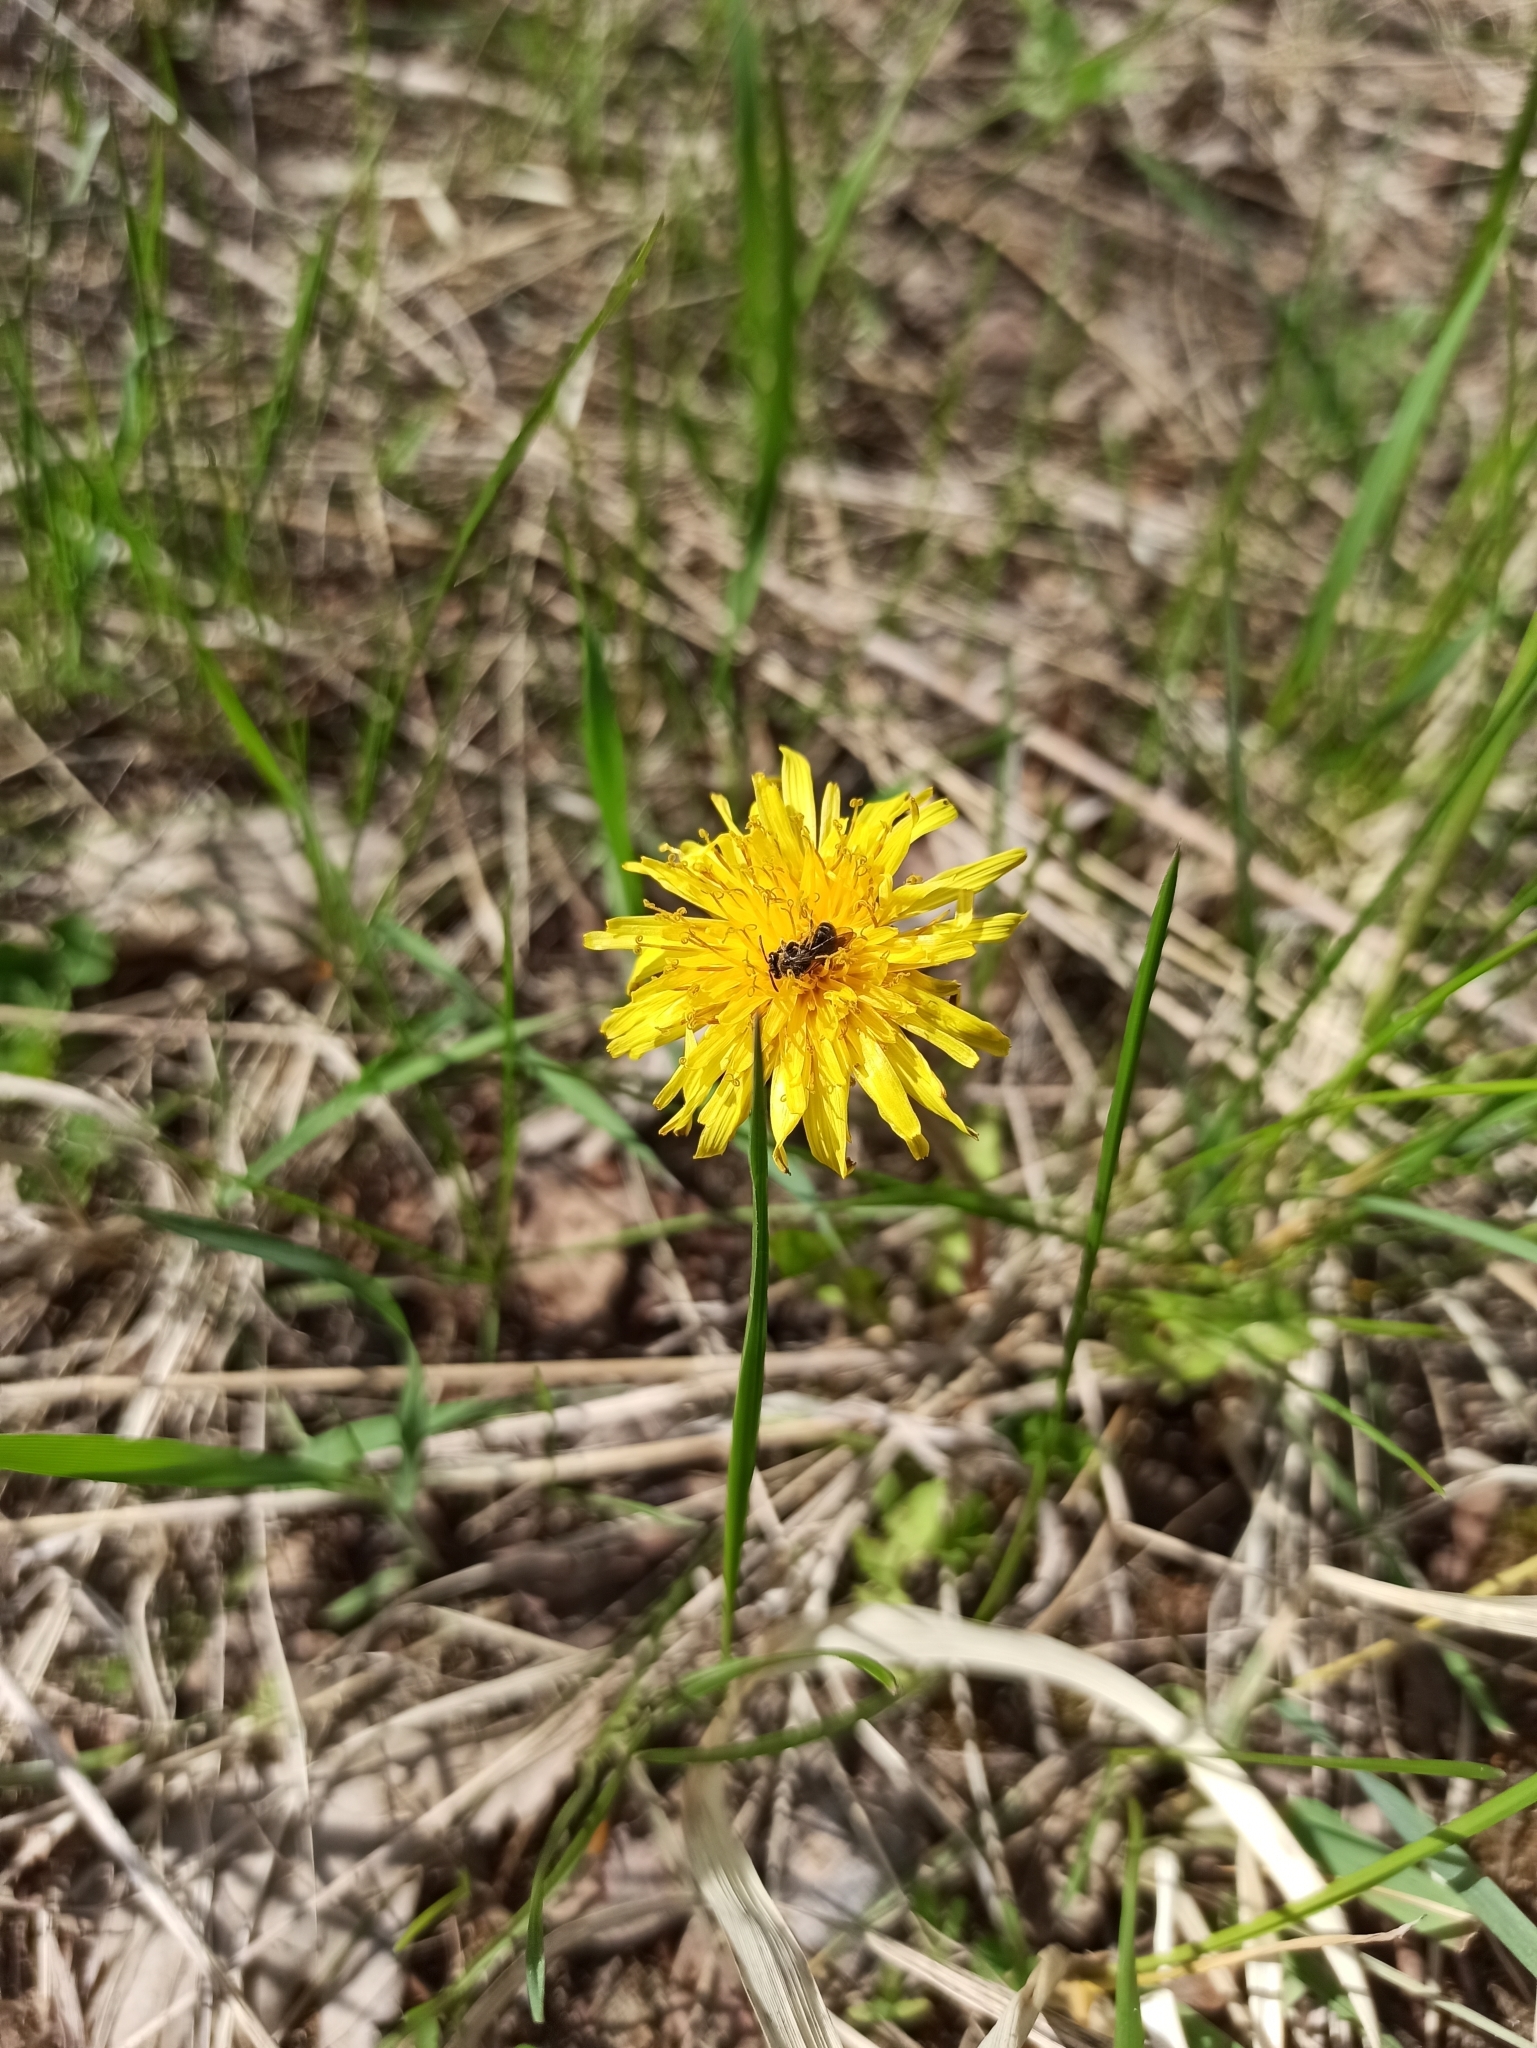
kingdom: Plantae
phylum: Tracheophyta
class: Magnoliopsida
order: Asterales
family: Asteraceae
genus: Taraxacum
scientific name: Taraxacum officinale
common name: Common dandelion
